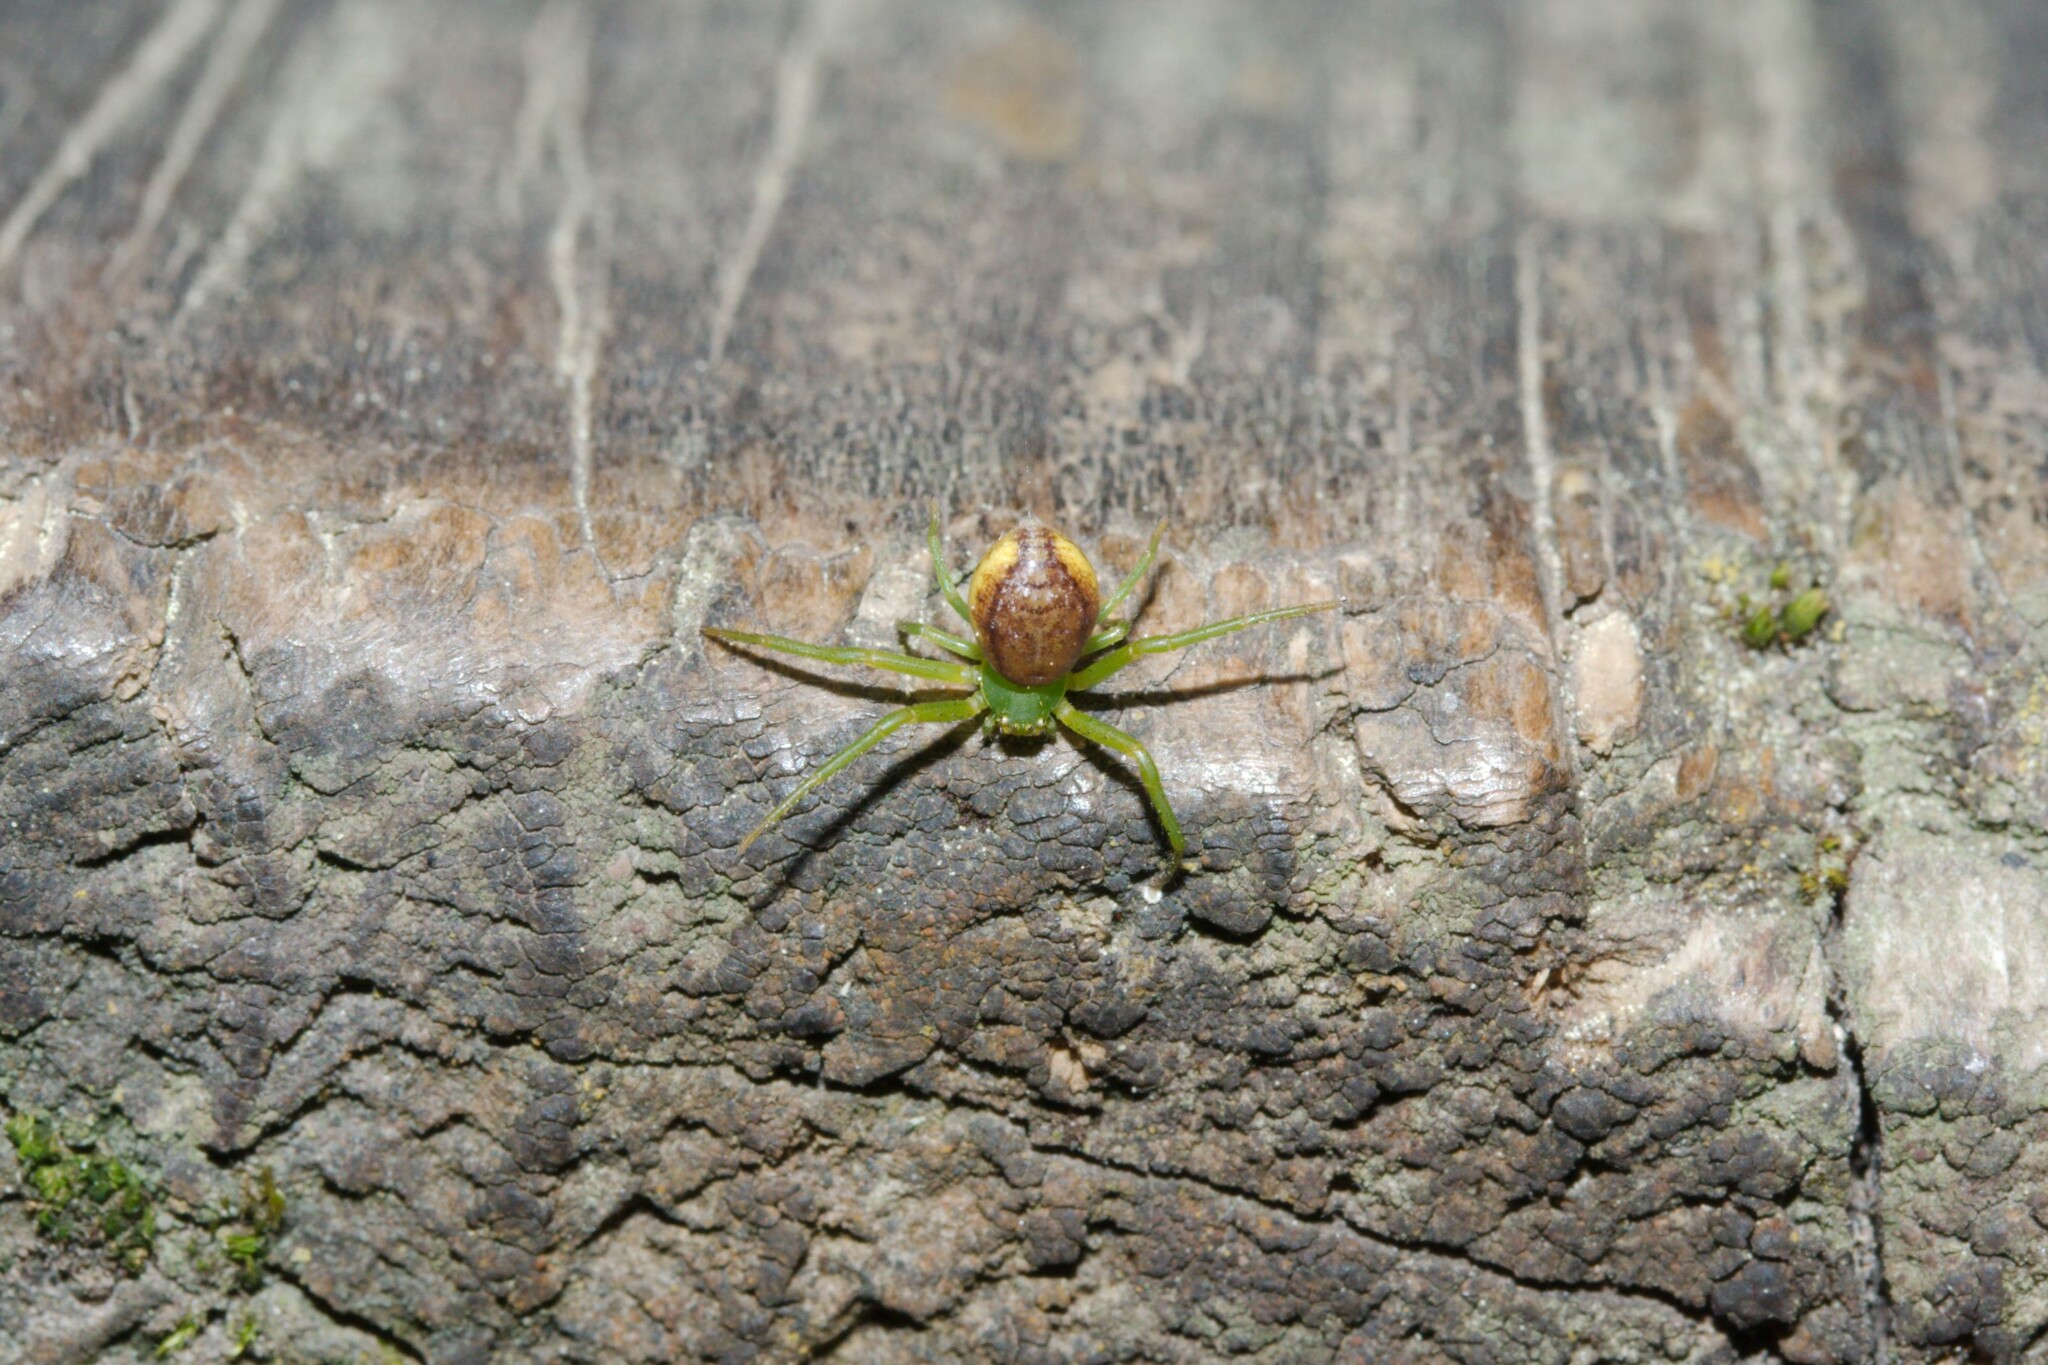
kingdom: Animalia
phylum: Arthropoda
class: Arachnida
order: Araneae
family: Thomisidae
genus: Diaea
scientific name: Diaea dorsata
